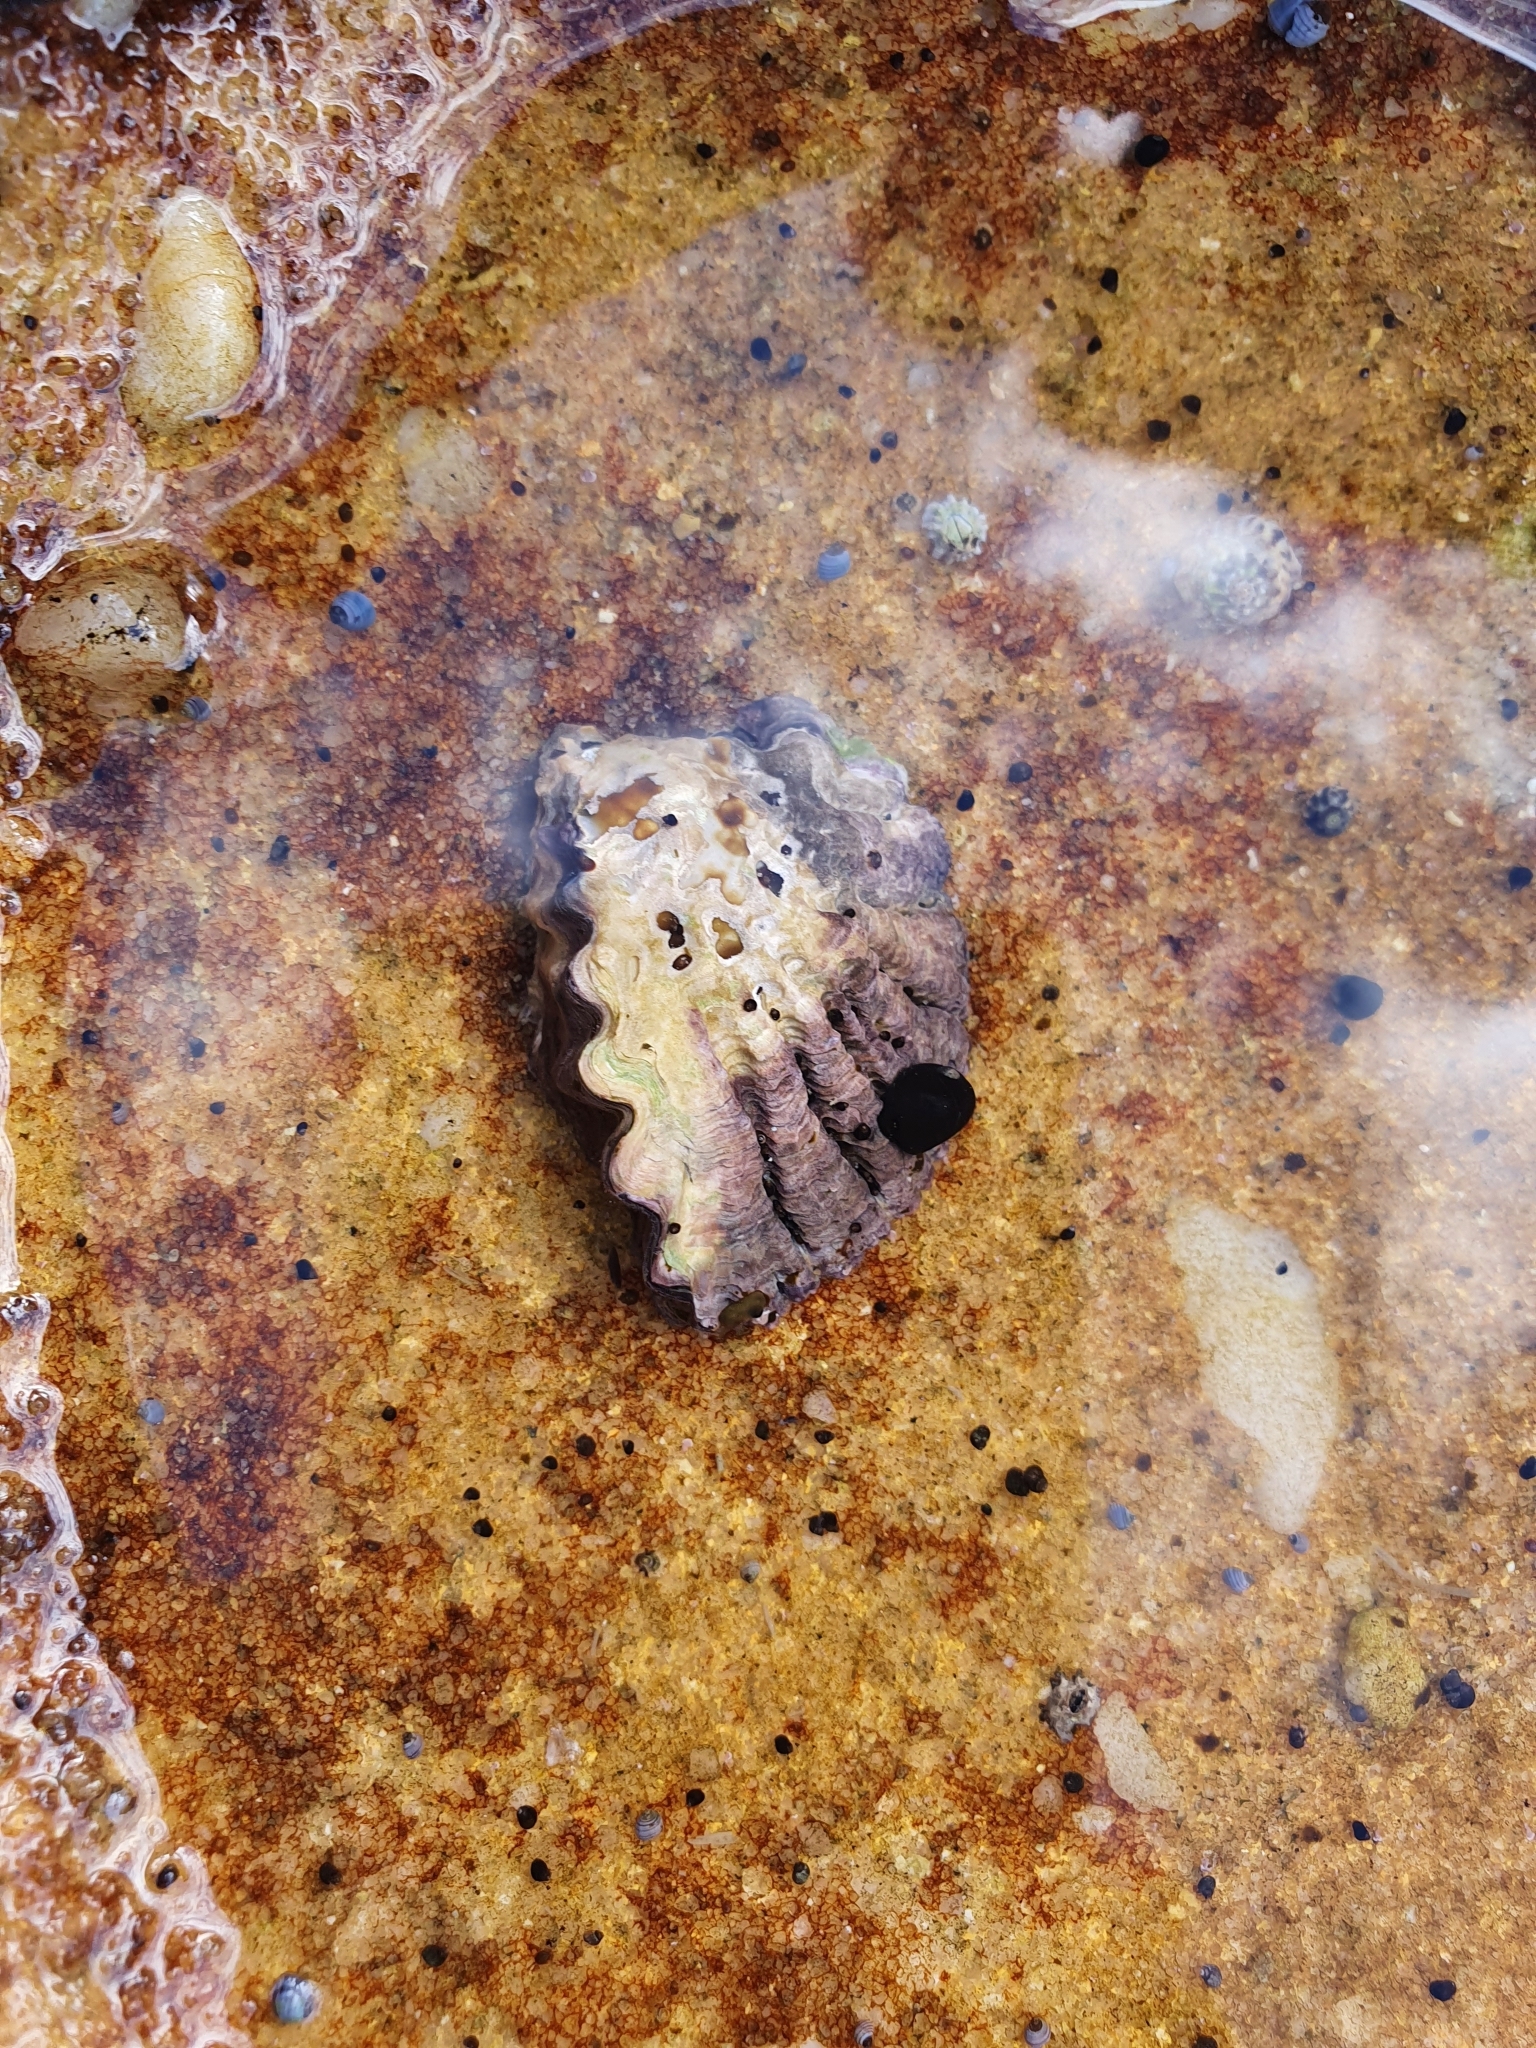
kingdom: Animalia
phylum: Mollusca
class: Bivalvia
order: Ostreida
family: Ostreidae
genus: Saccostrea
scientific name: Saccostrea glomerata
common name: Sydney cupped oyster
